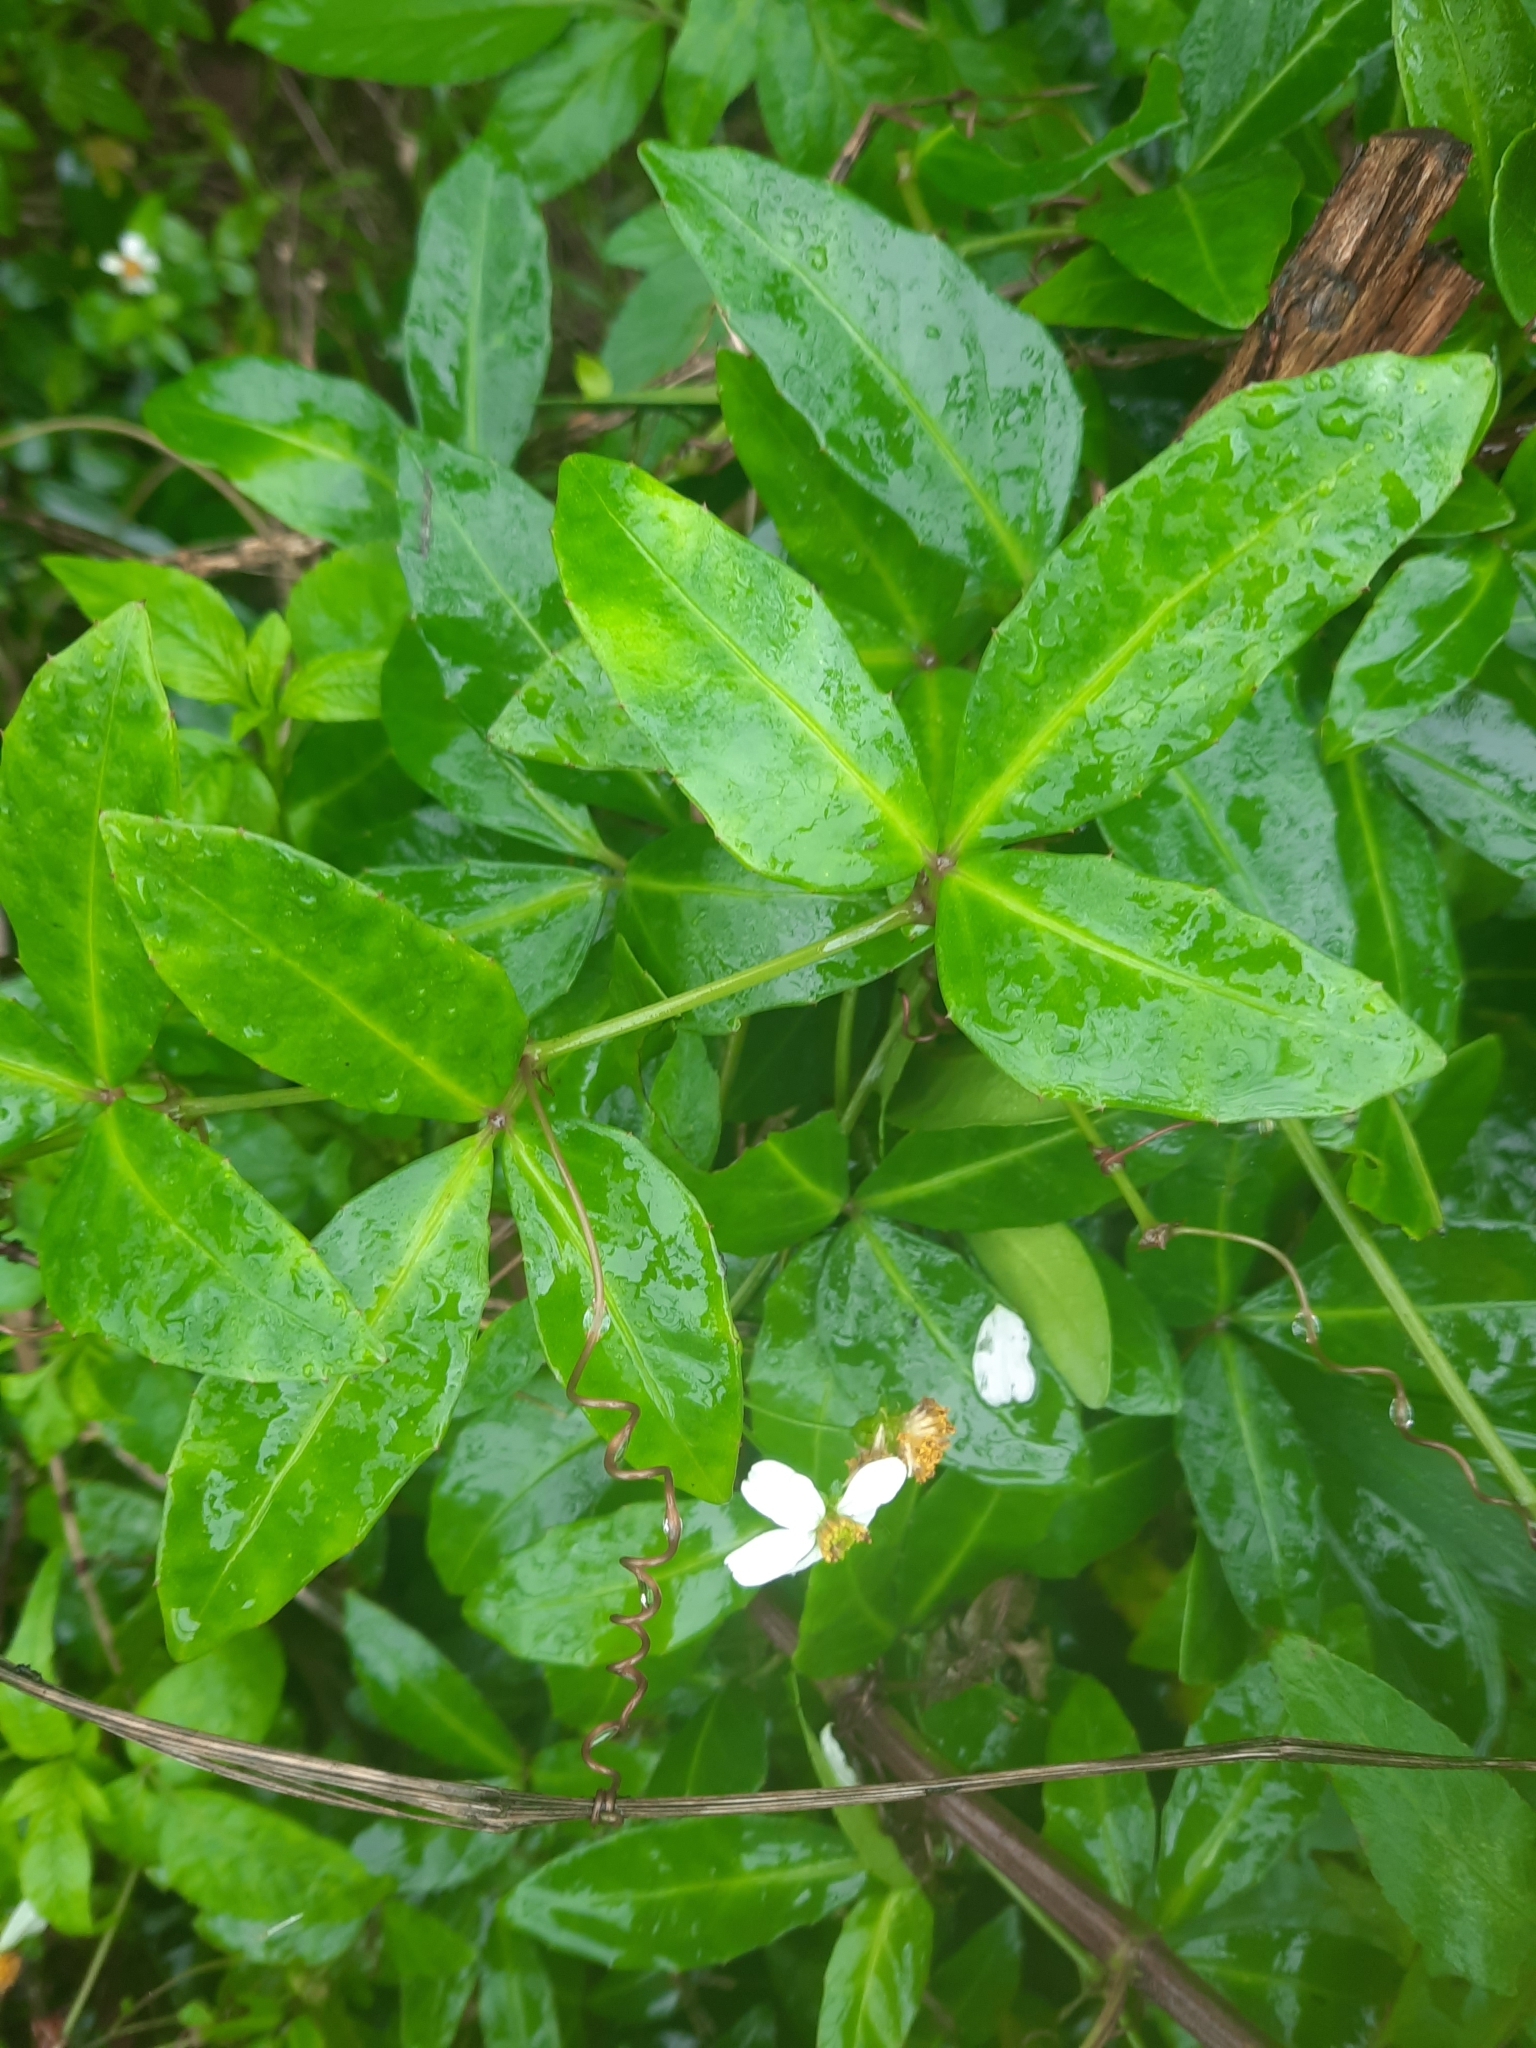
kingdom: Plantae
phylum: Tracheophyta
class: Magnoliopsida
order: Vitales
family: Vitaceae
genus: Tetrastigma
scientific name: Tetrastigma formosanum
